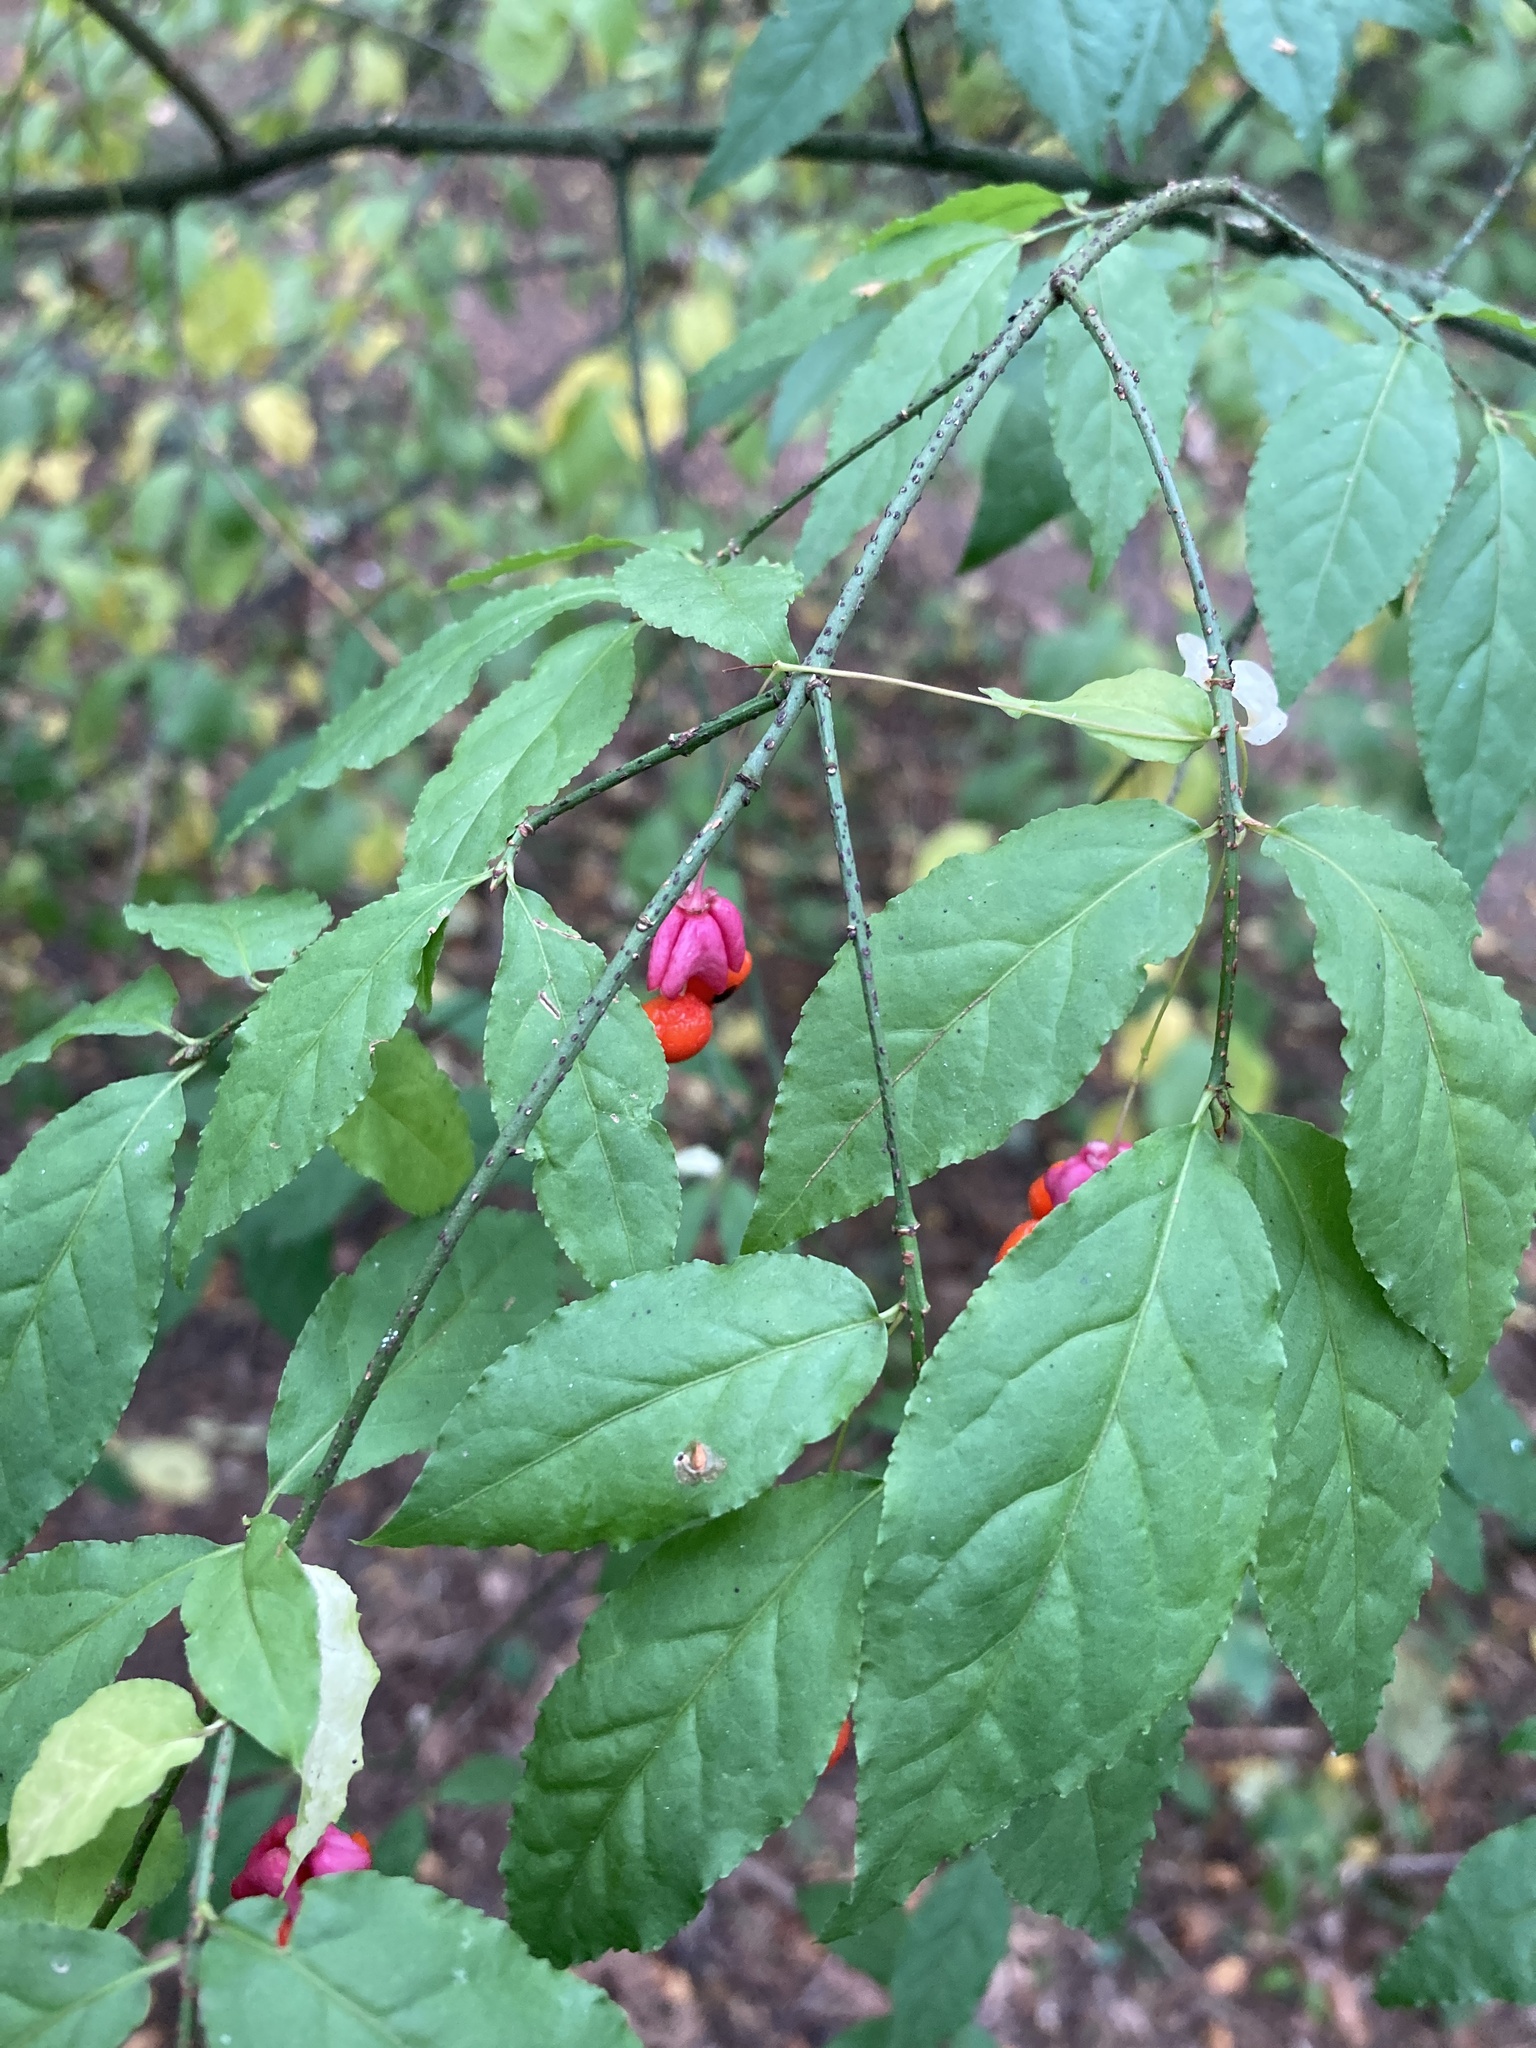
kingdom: Plantae
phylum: Tracheophyta
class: Magnoliopsida
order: Celastrales
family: Celastraceae
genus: Euonymus
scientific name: Euonymus verrucosus
